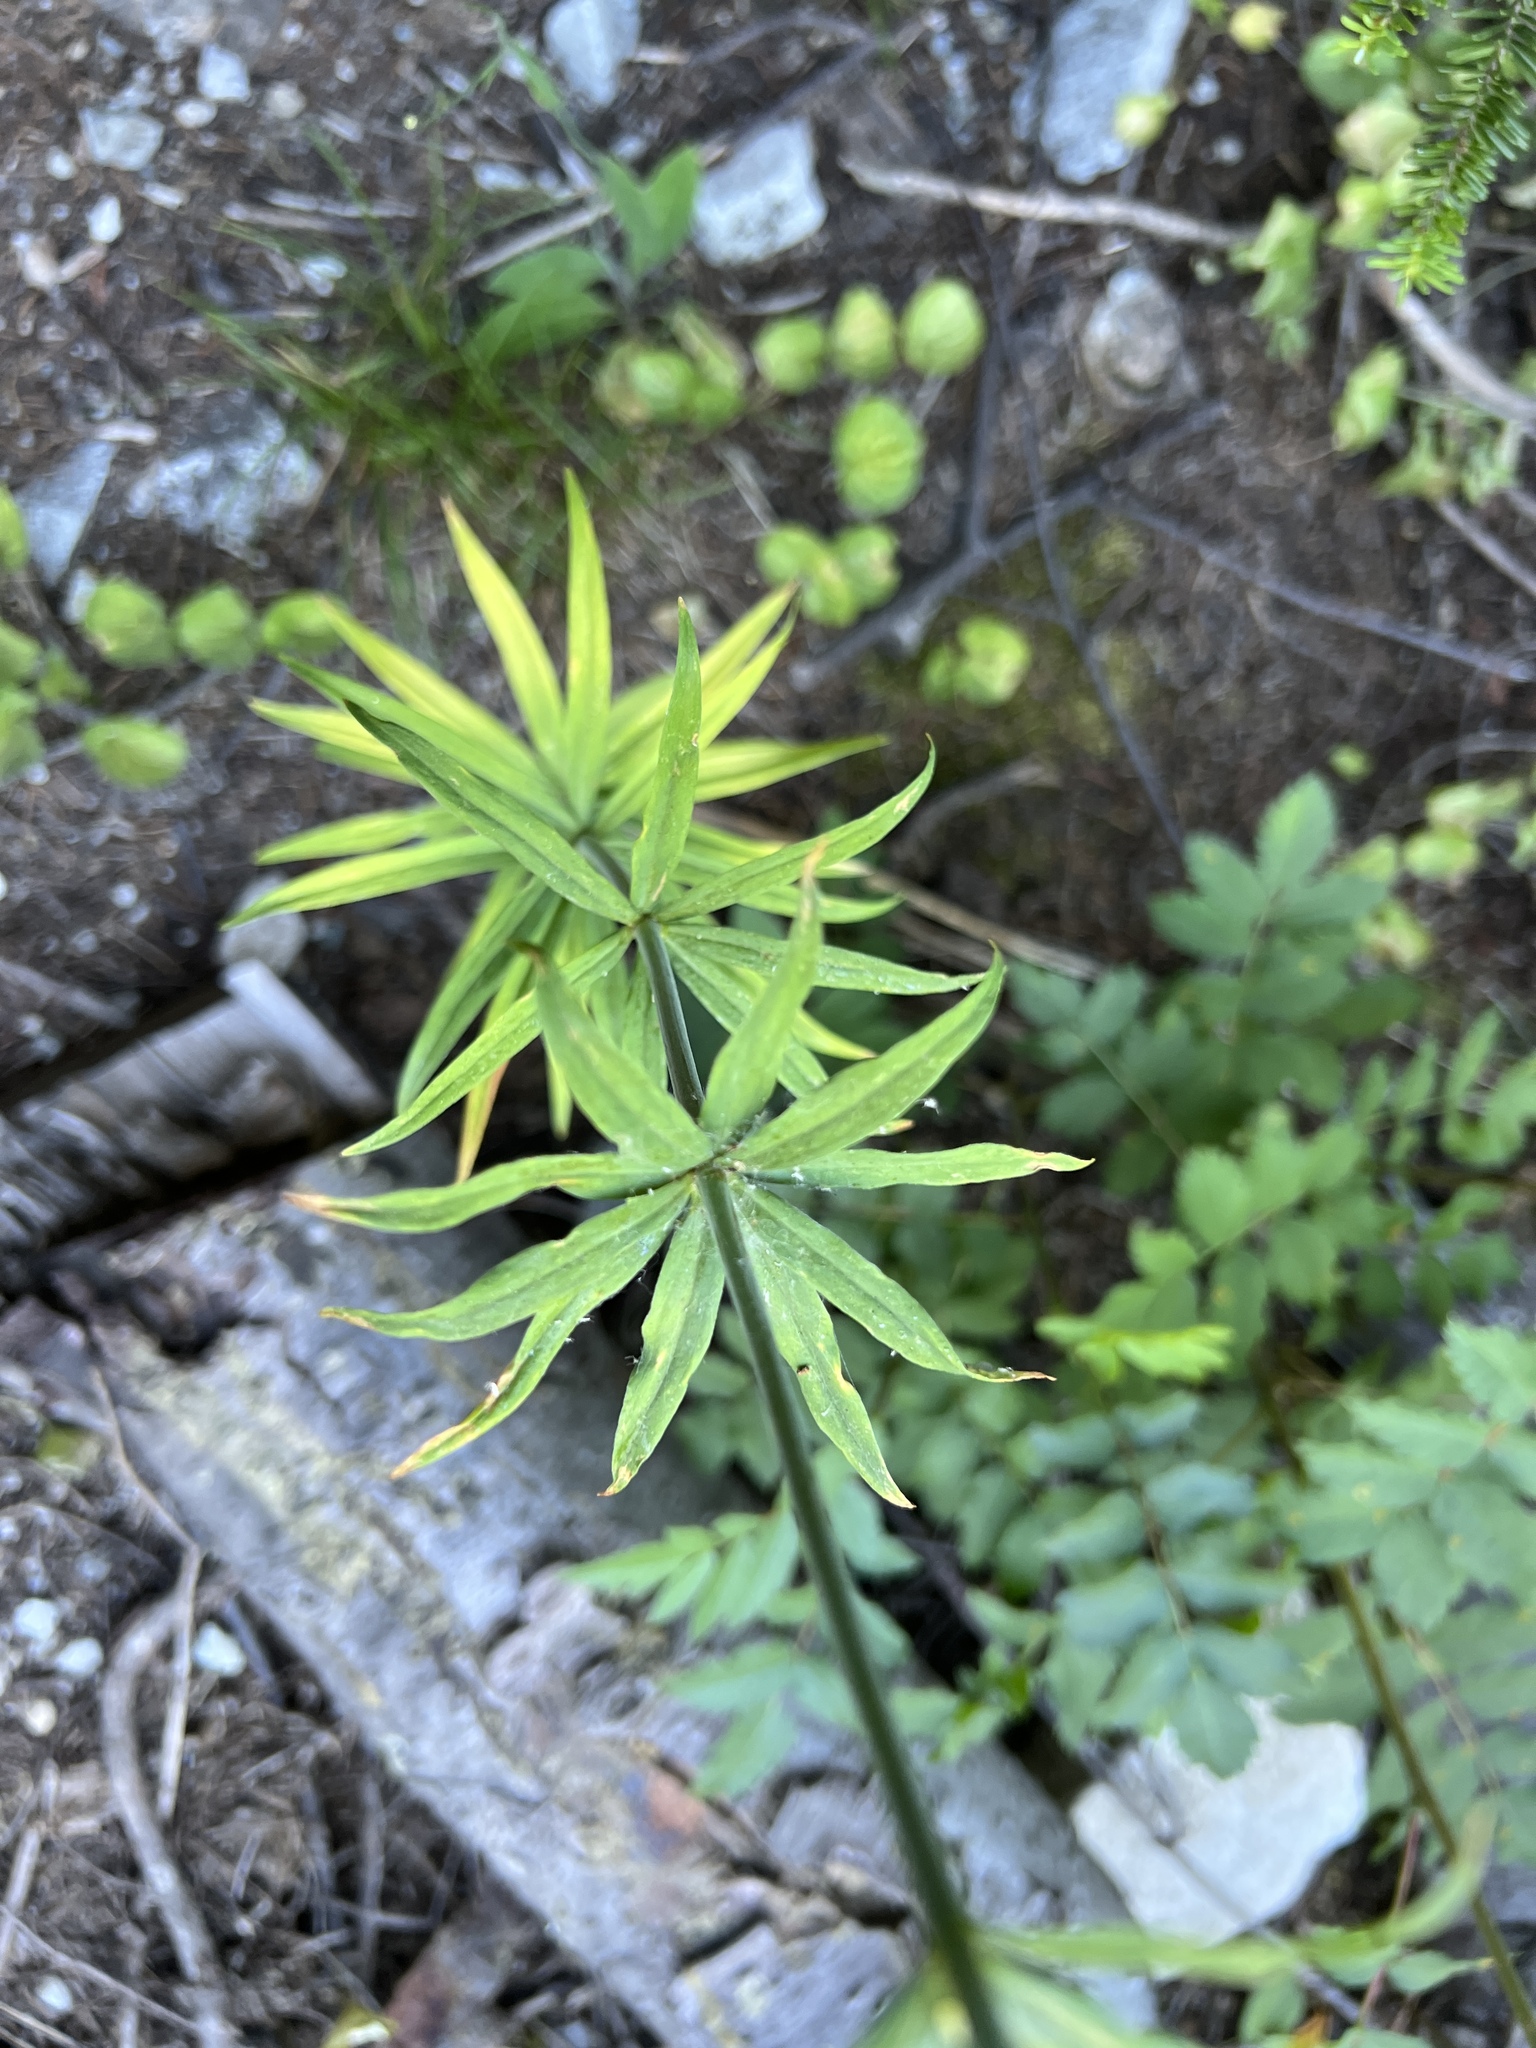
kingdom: Plantae
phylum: Tracheophyta
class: Liliopsida
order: Liliales
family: Liliaceae
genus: Lilium
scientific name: Lilium columbianum
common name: Columbia lily
